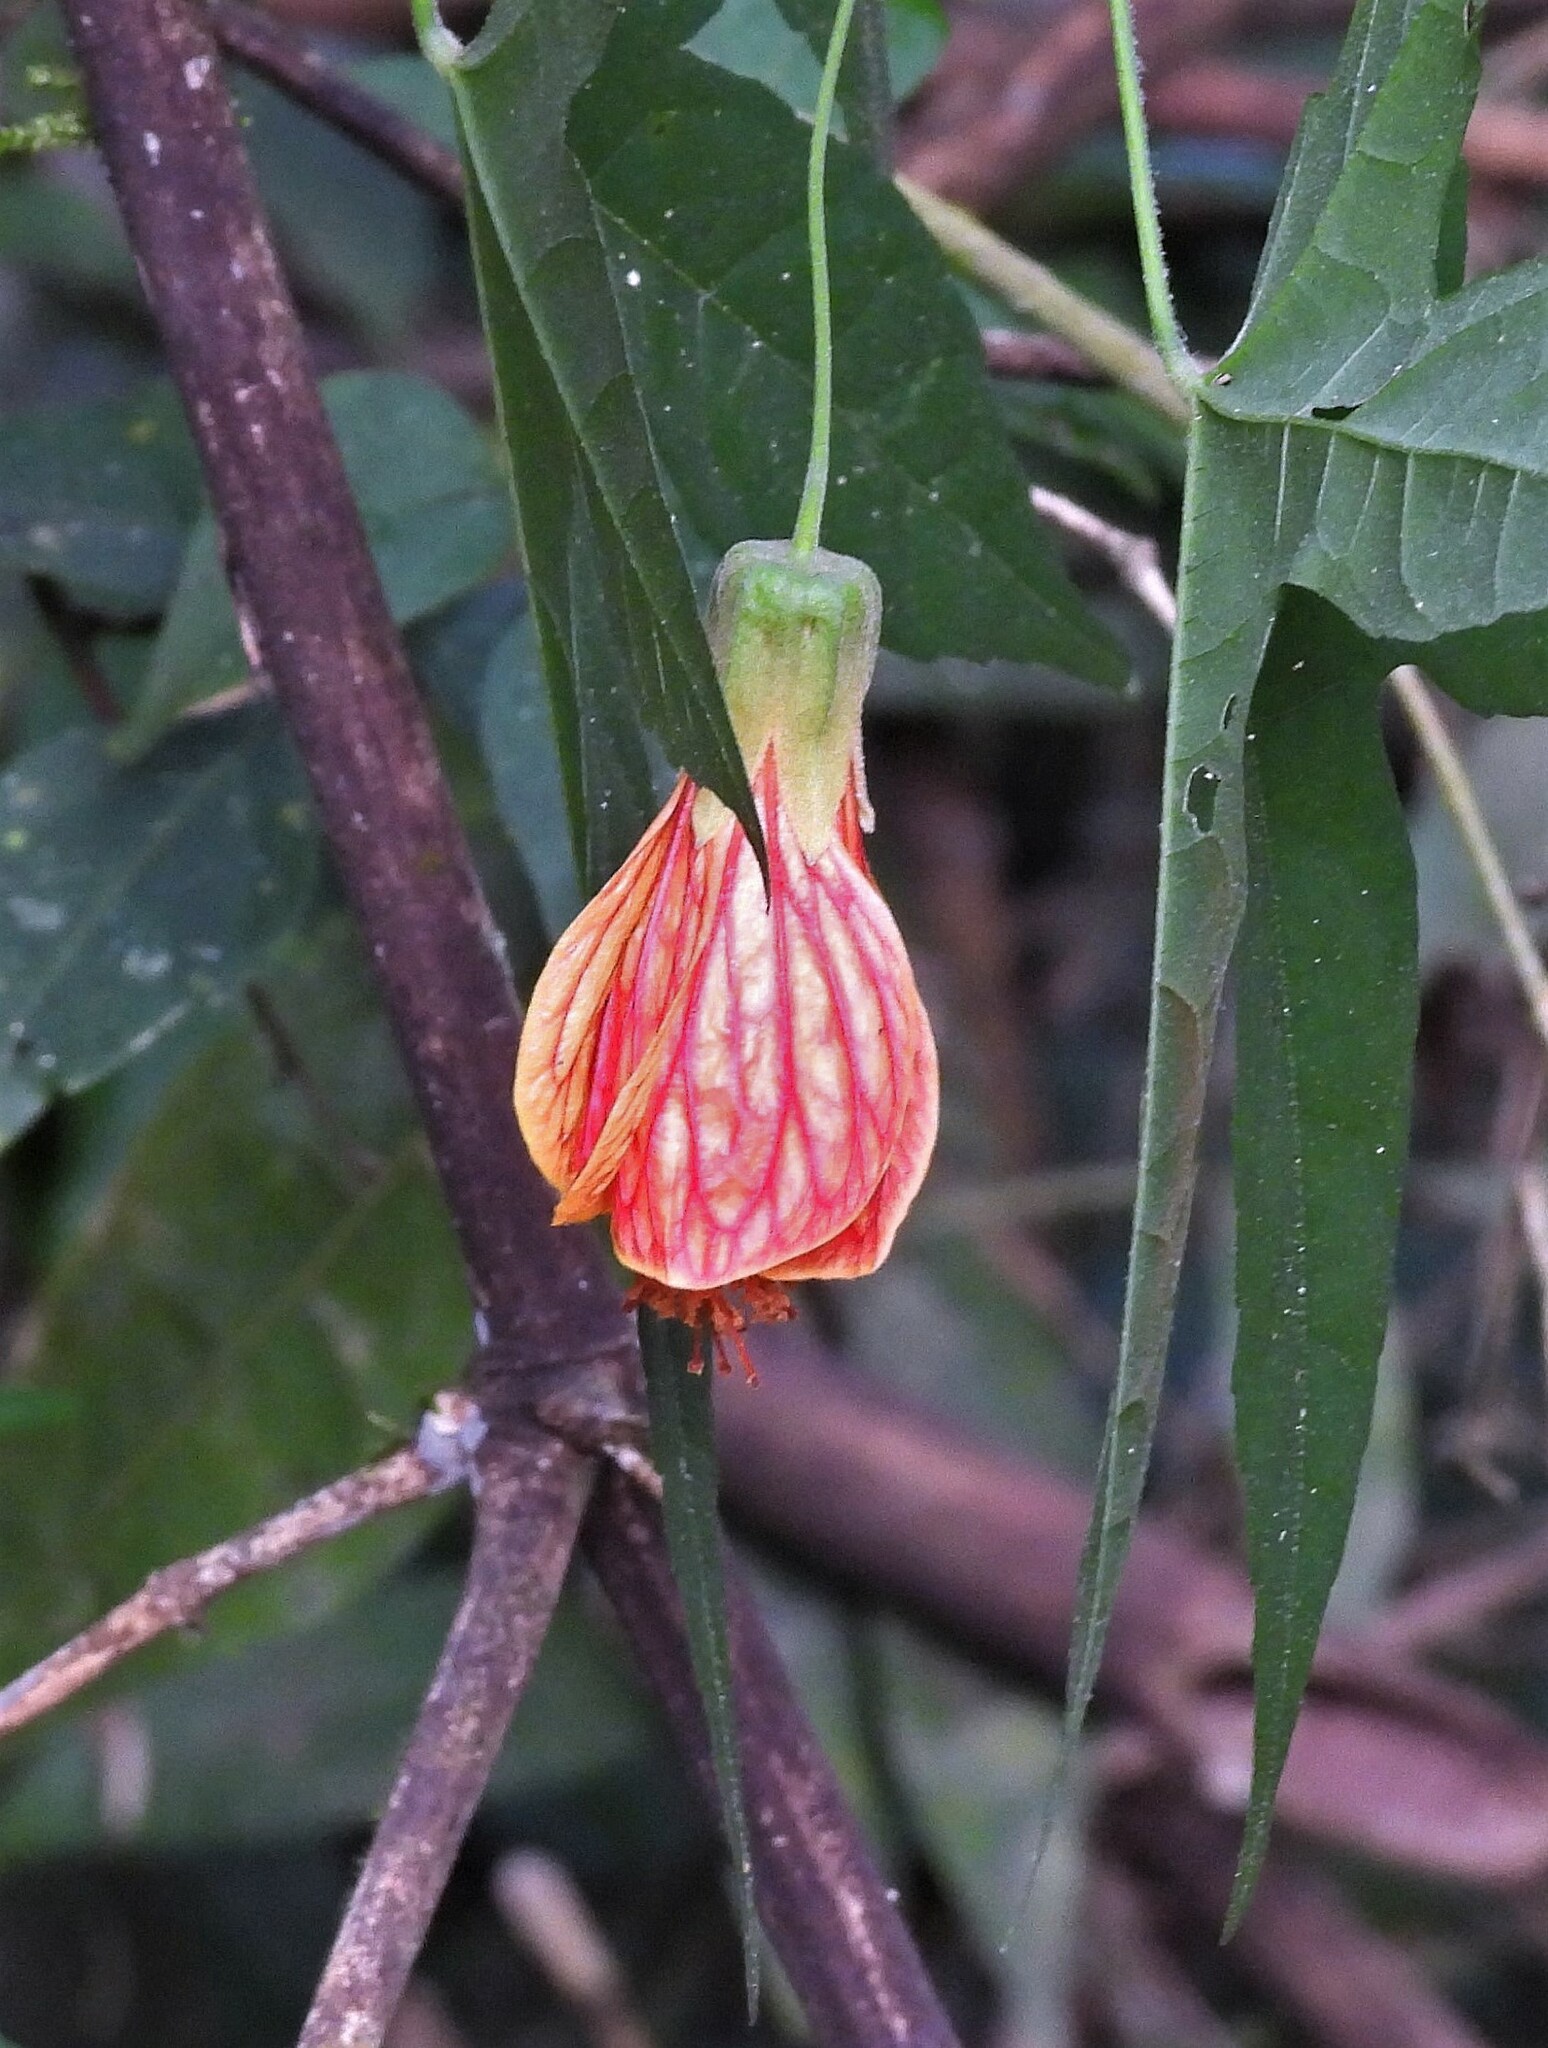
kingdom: Plantae
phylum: Tracheophyta
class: Magnoliopsida
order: Malvales
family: Malvaceae
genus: Callianthe
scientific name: Callianthe picta
